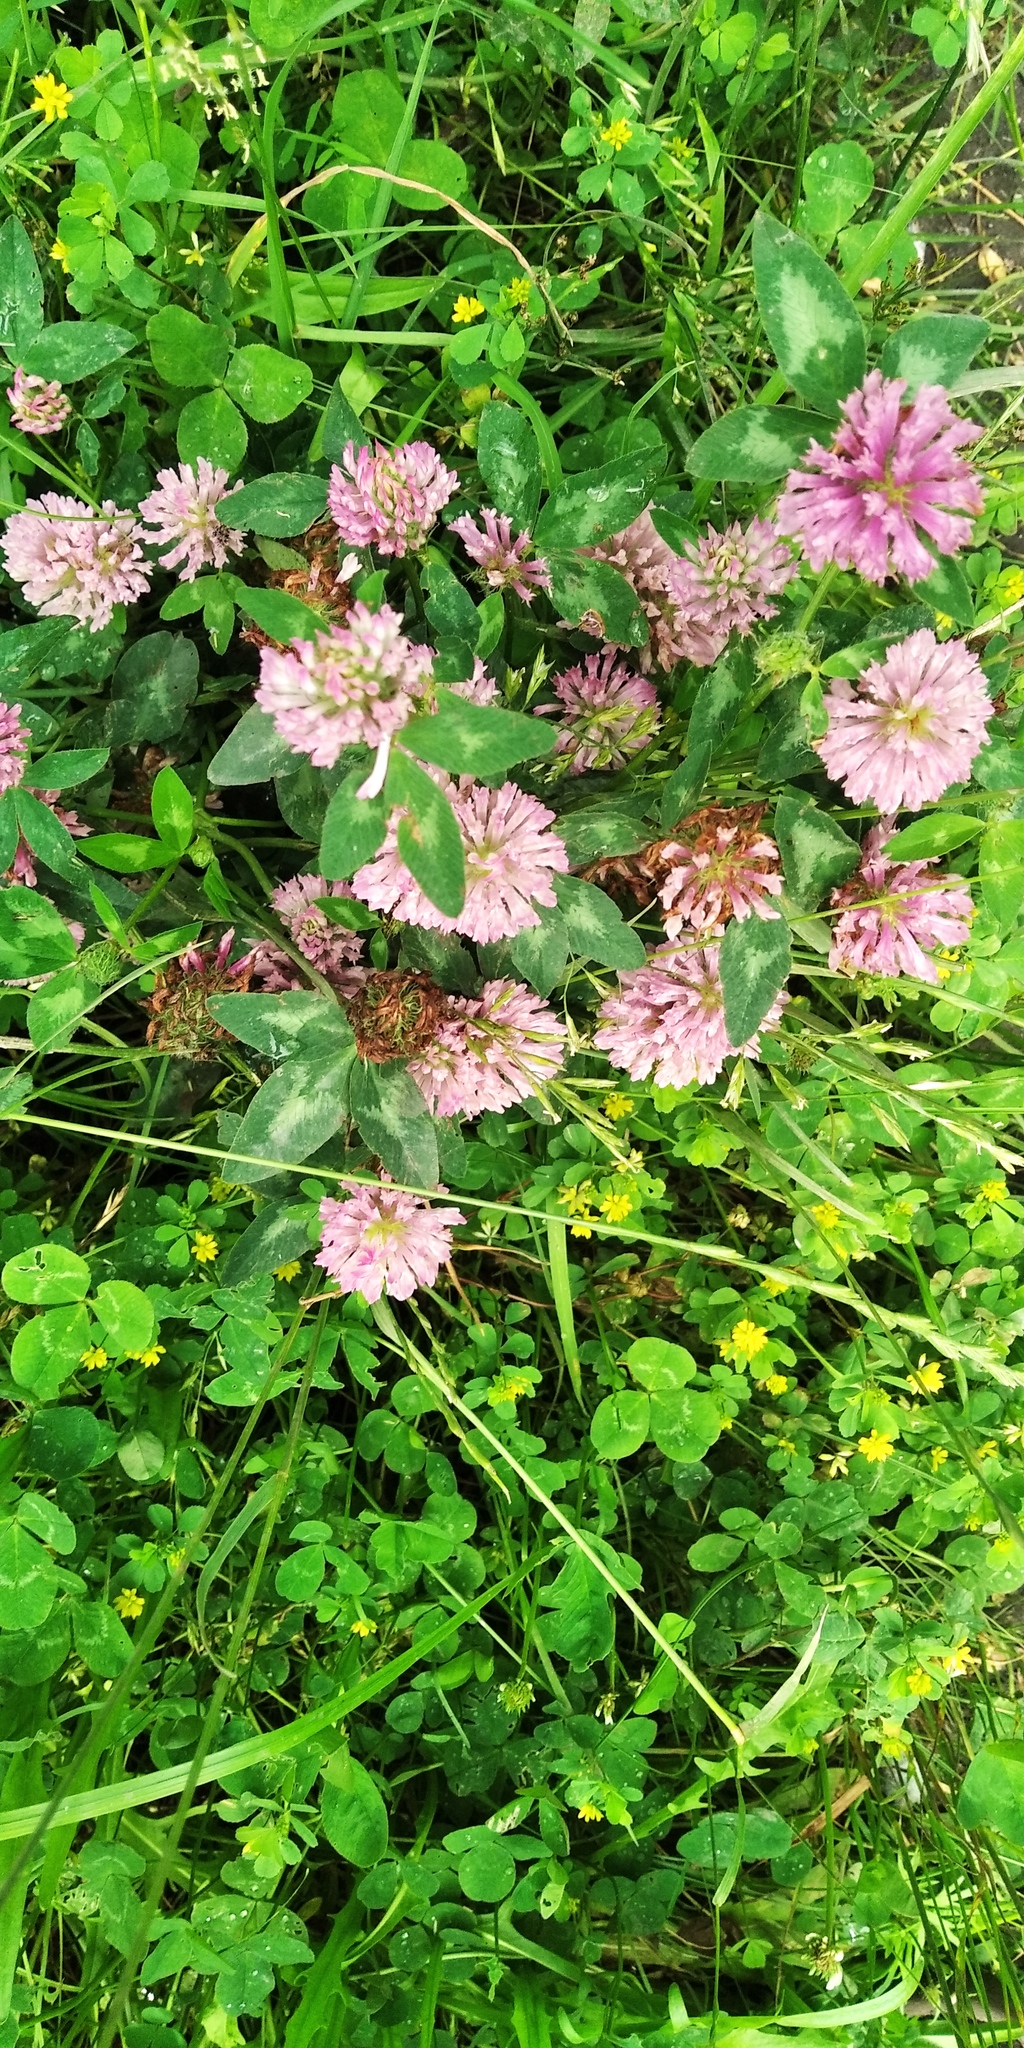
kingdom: Plantae
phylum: Tracheophyta
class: Magnoliopsida
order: Fabales
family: Fabaceae
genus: Trifolium
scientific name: Trifolium pratense
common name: Red clover
